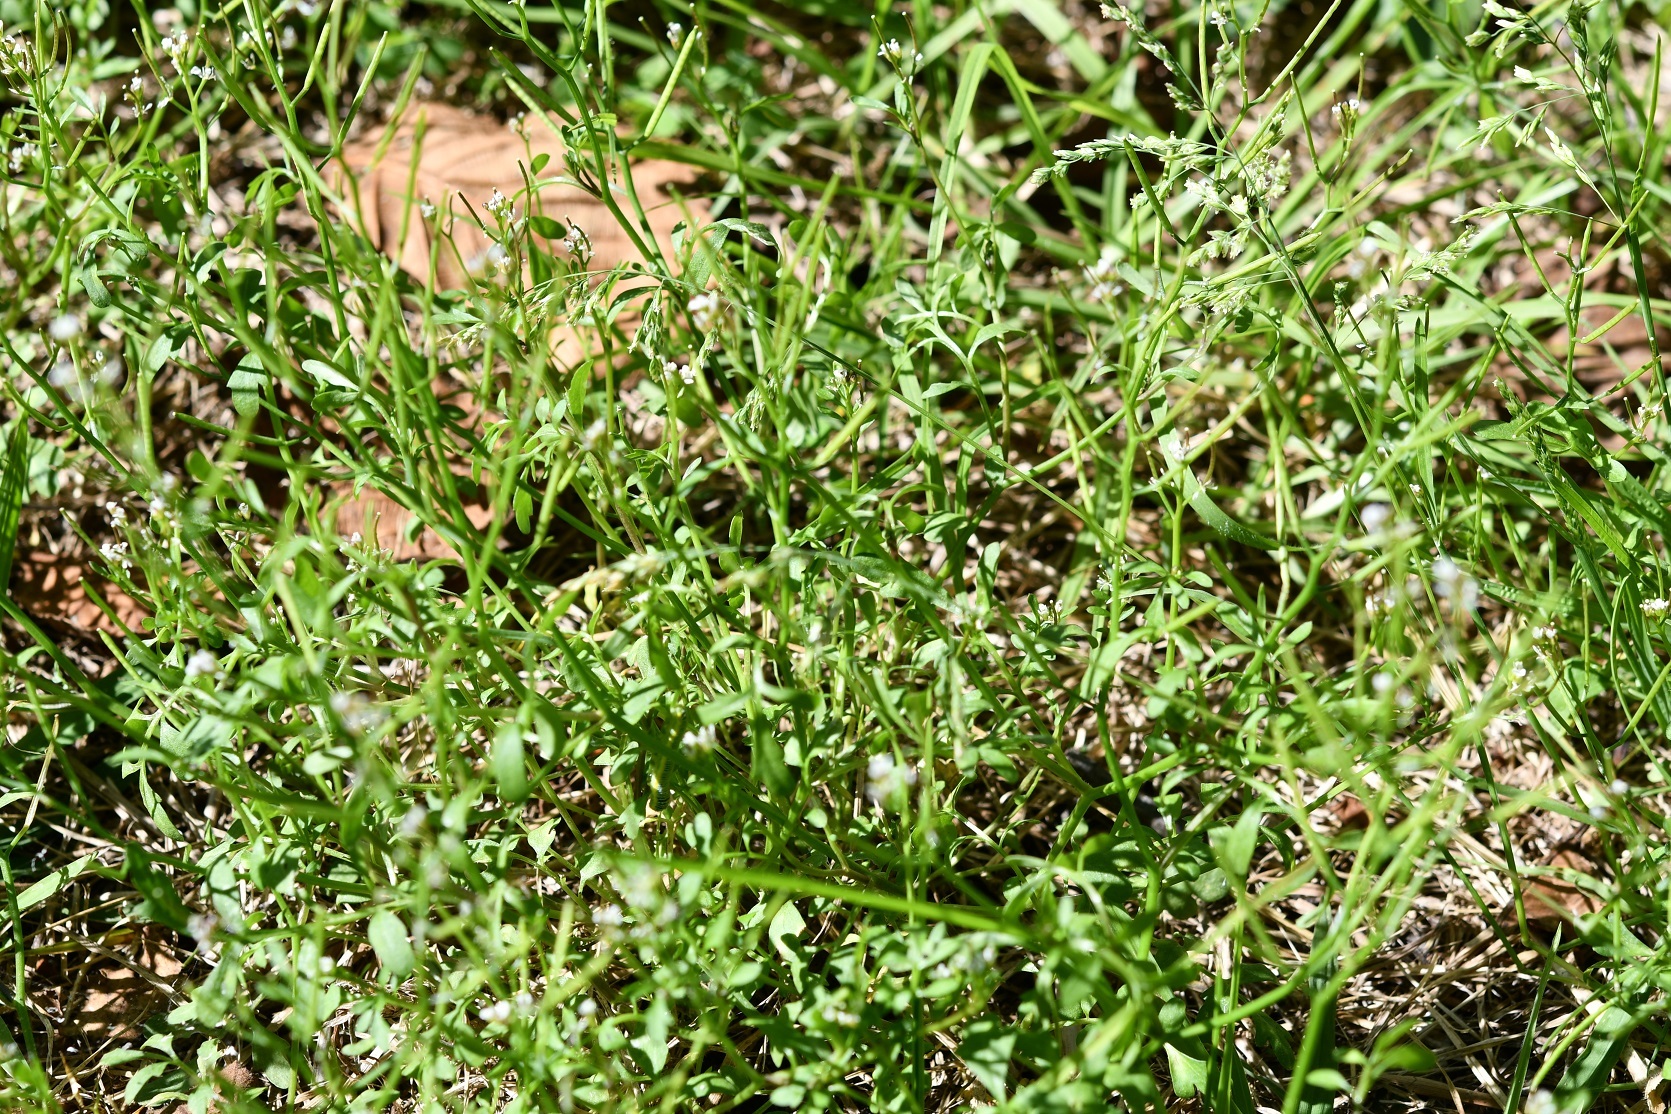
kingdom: Plantae
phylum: Tracheophyta
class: Magnoliopsida
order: Brassicales
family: Brassicaceae
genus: Cardamine
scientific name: Cardamine occulta
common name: Asian wavy bittercress
